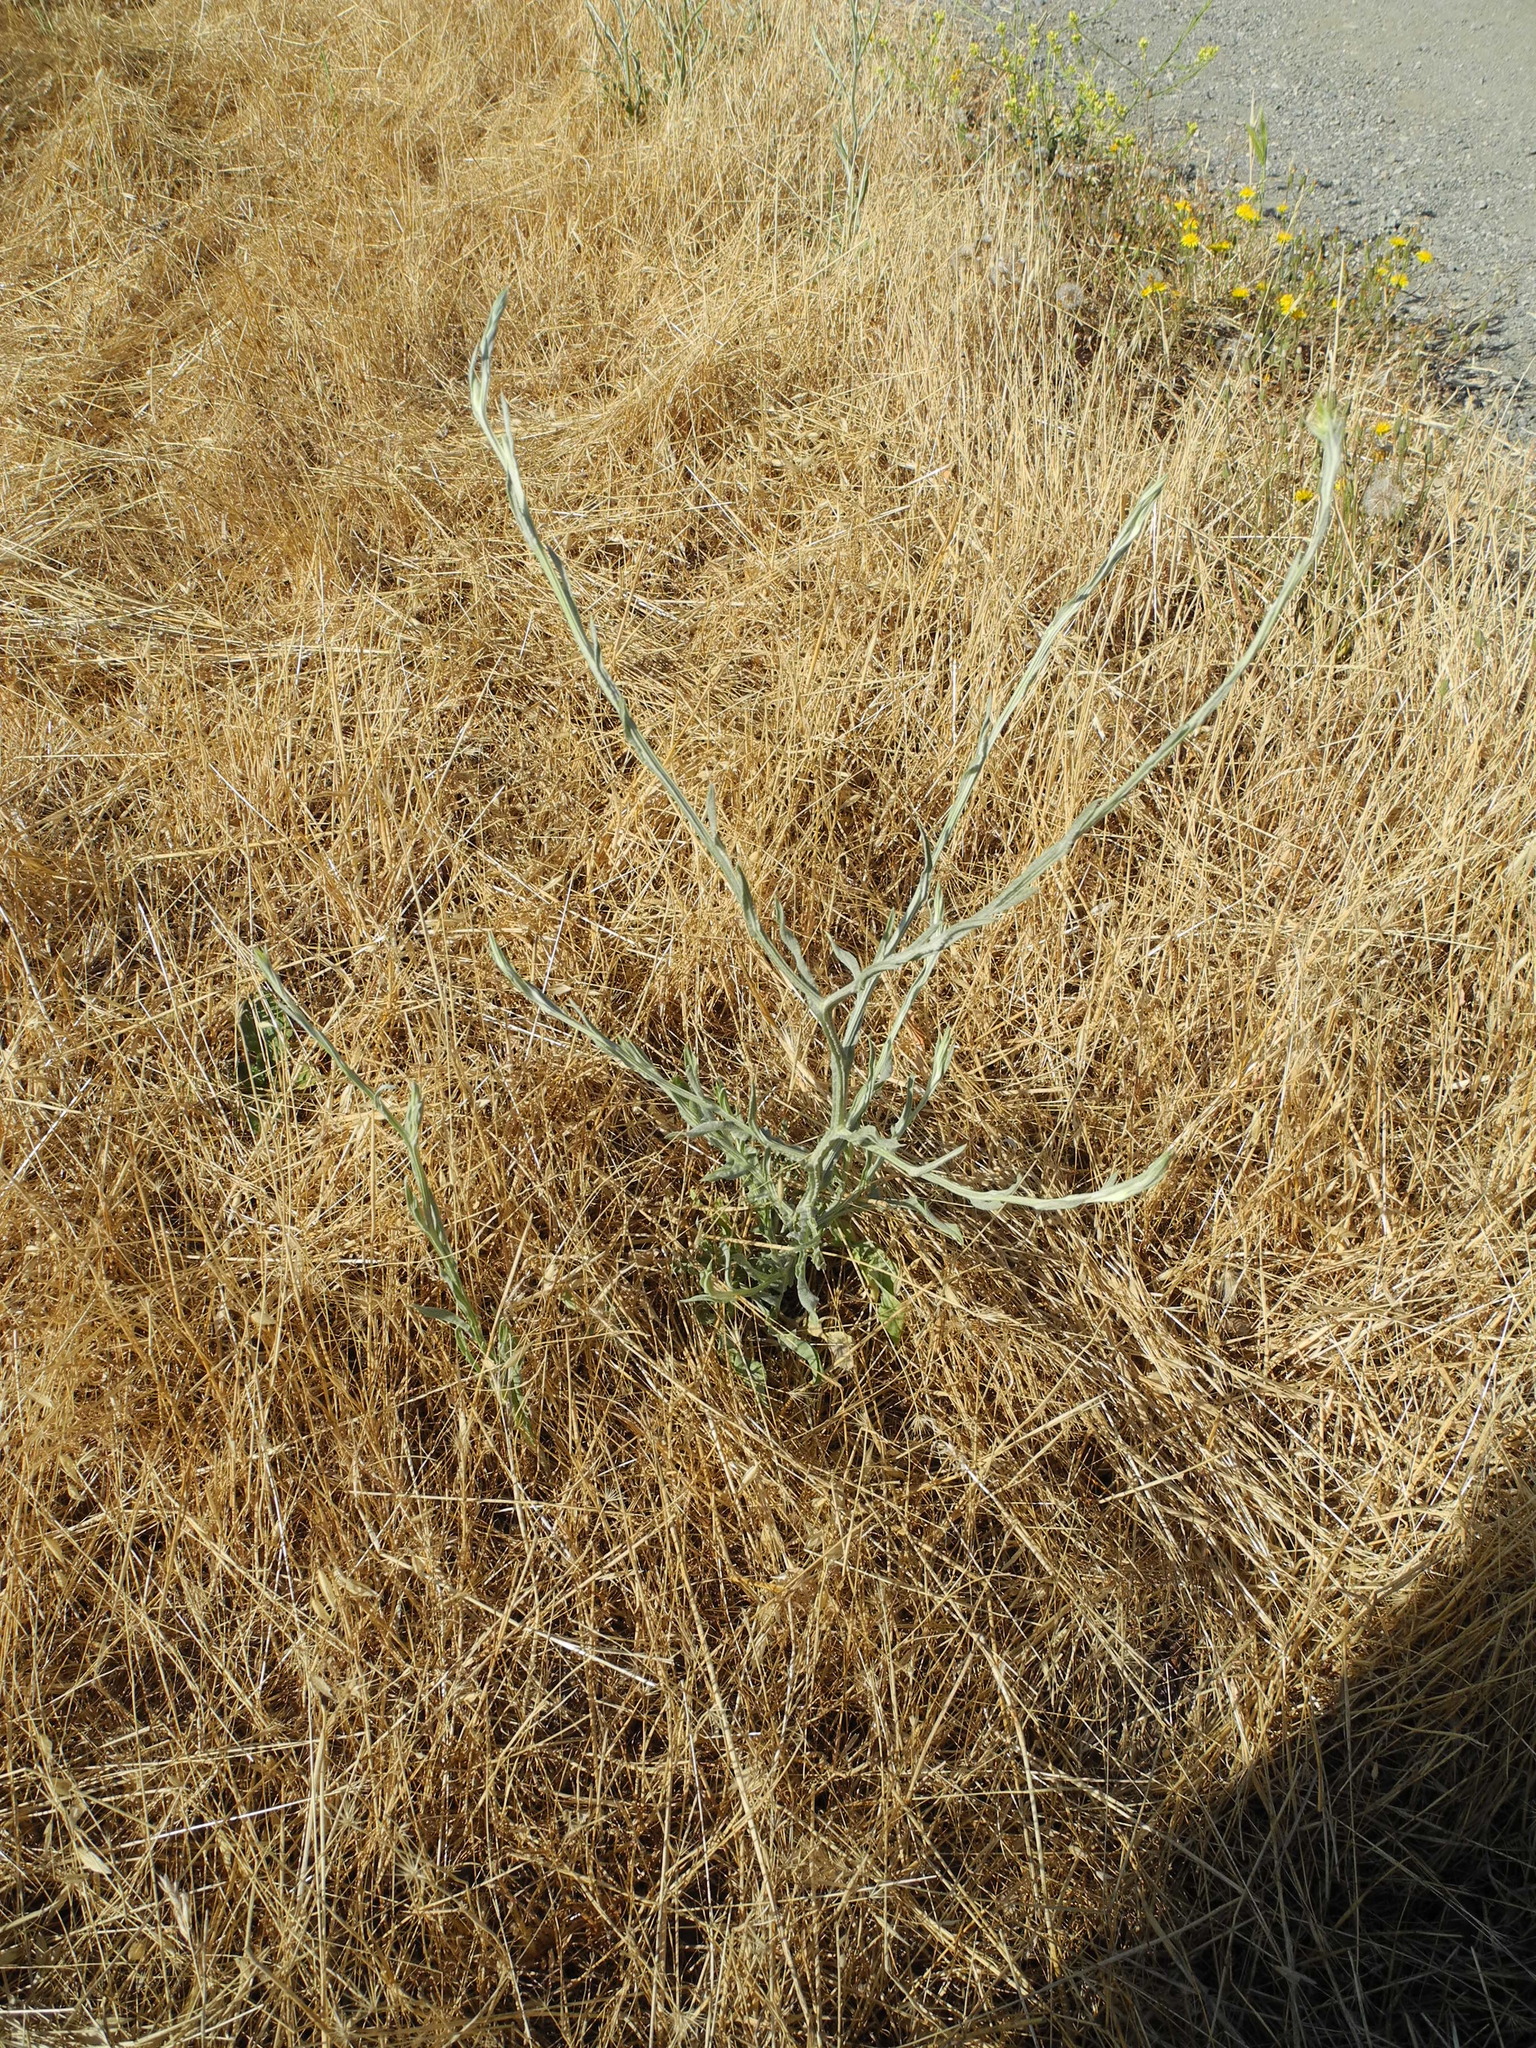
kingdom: Plantae
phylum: Tracheophyta
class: Magnoliopsida
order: Asterales
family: Asteraceae
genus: Centaurea
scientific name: Centaurea solstitialis
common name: Yellow star-thistle
